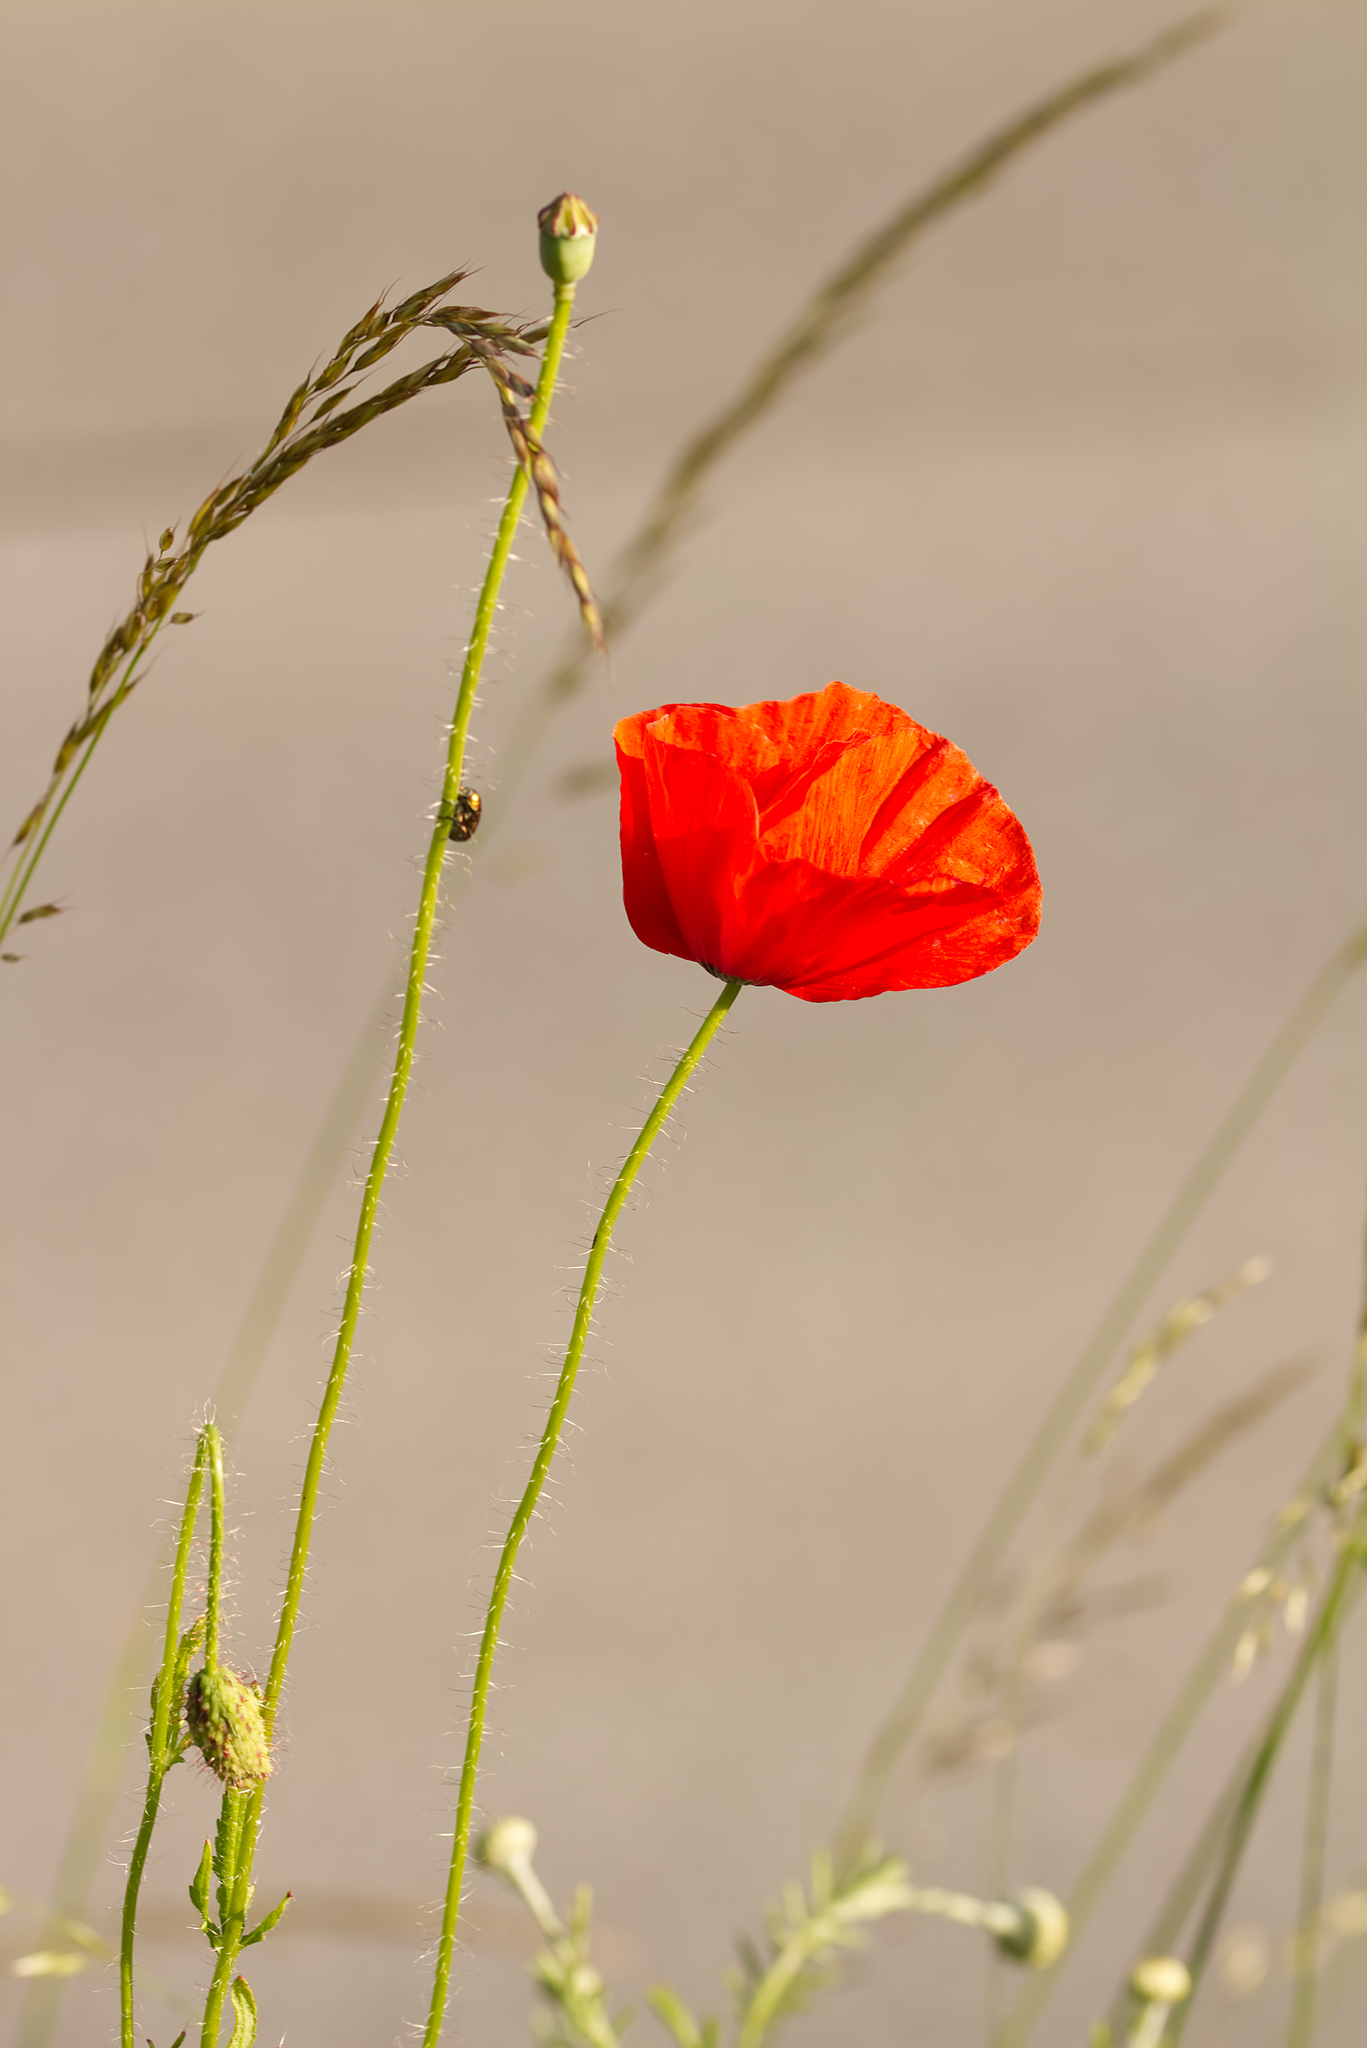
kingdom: Plantae
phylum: Tracheophyta
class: Magnoliopsida
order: Ranunculales
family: Papaveraceae
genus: Papaver
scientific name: Papaver rhoeas
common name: Corn poppy
